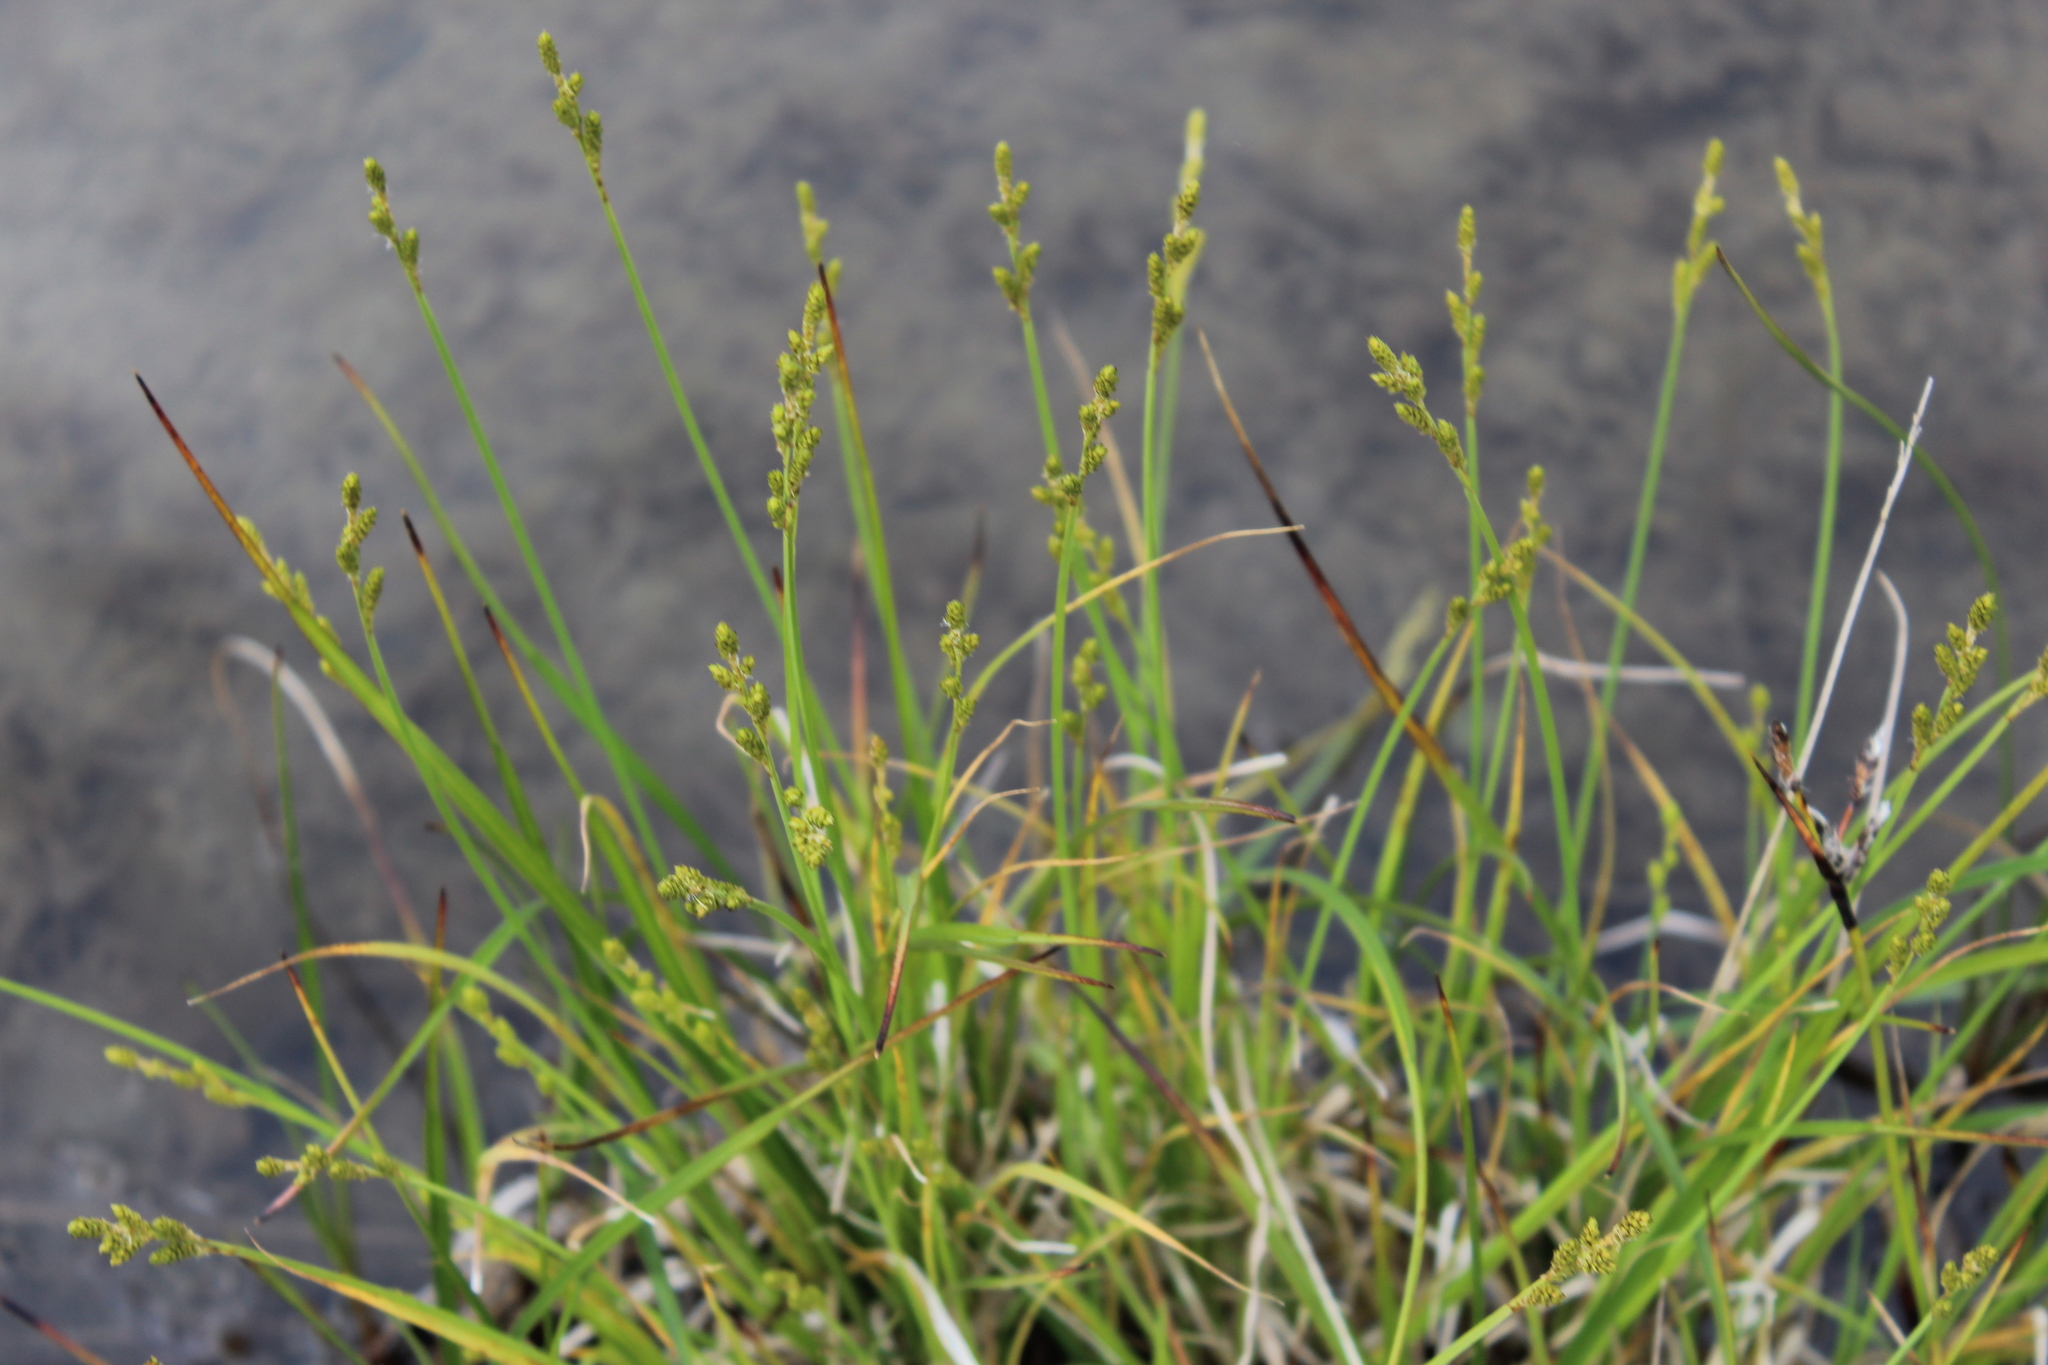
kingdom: Plantae
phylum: Tracheophyta
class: Liliopsida
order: Poales
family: Cyperaceae
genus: Carex
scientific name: Carex canescens
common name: White sedge
